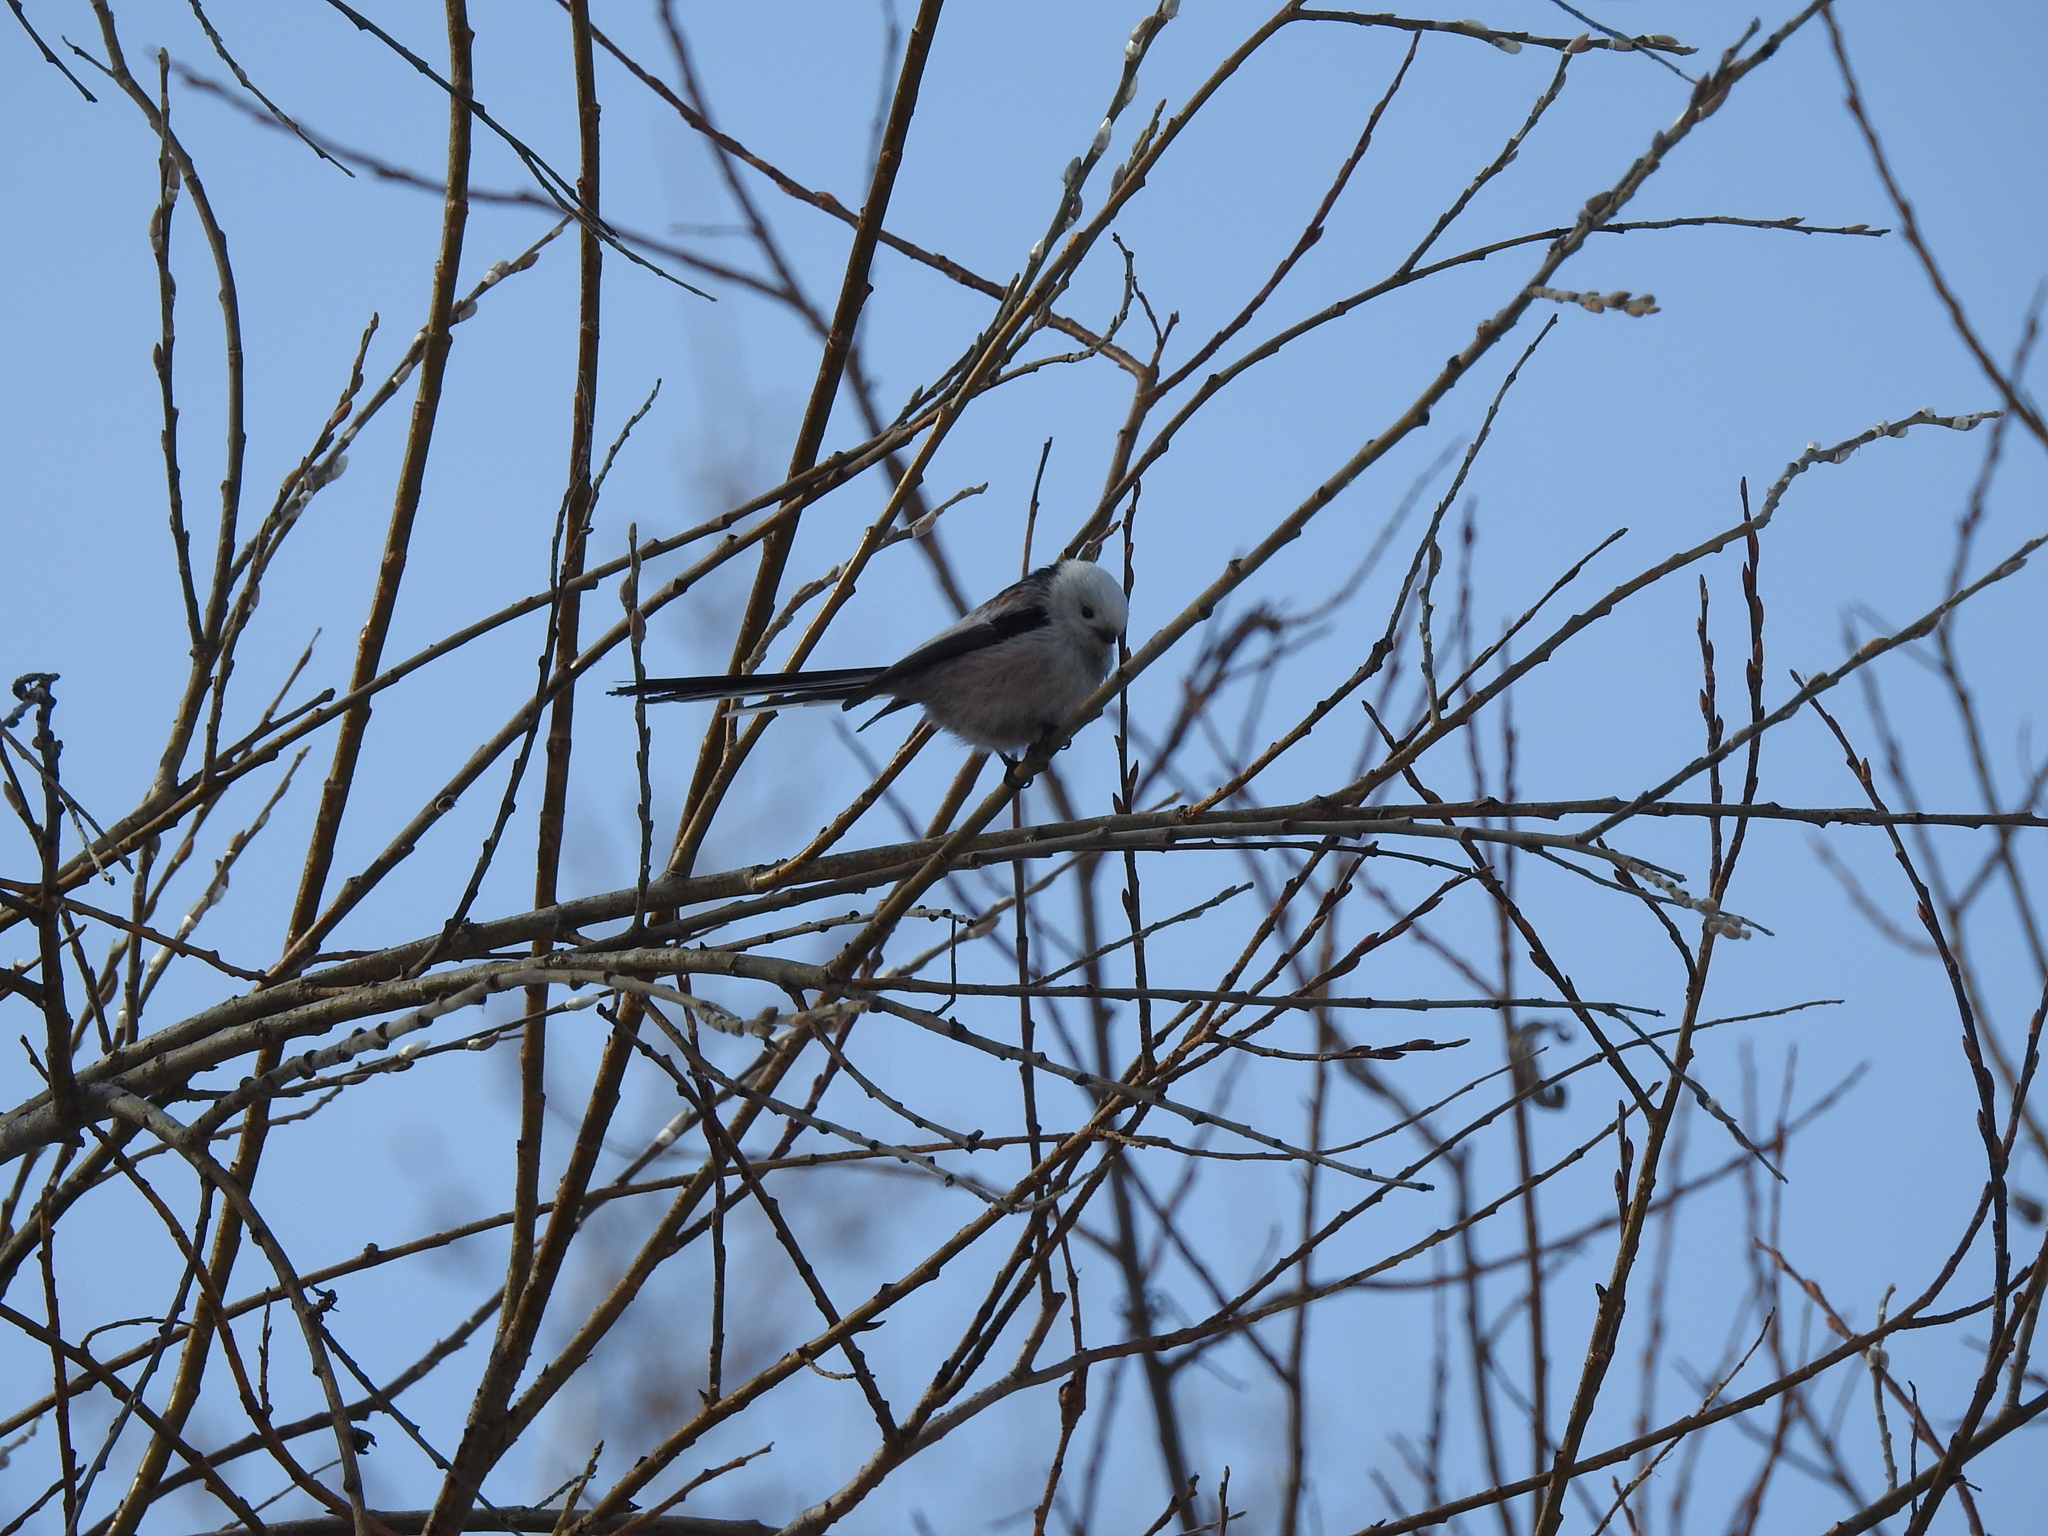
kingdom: Animalia
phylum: Chordata
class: Aves
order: Passeriformes
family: Aegithalidae
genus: Aegithalos
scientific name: Aegithalos caudatus
